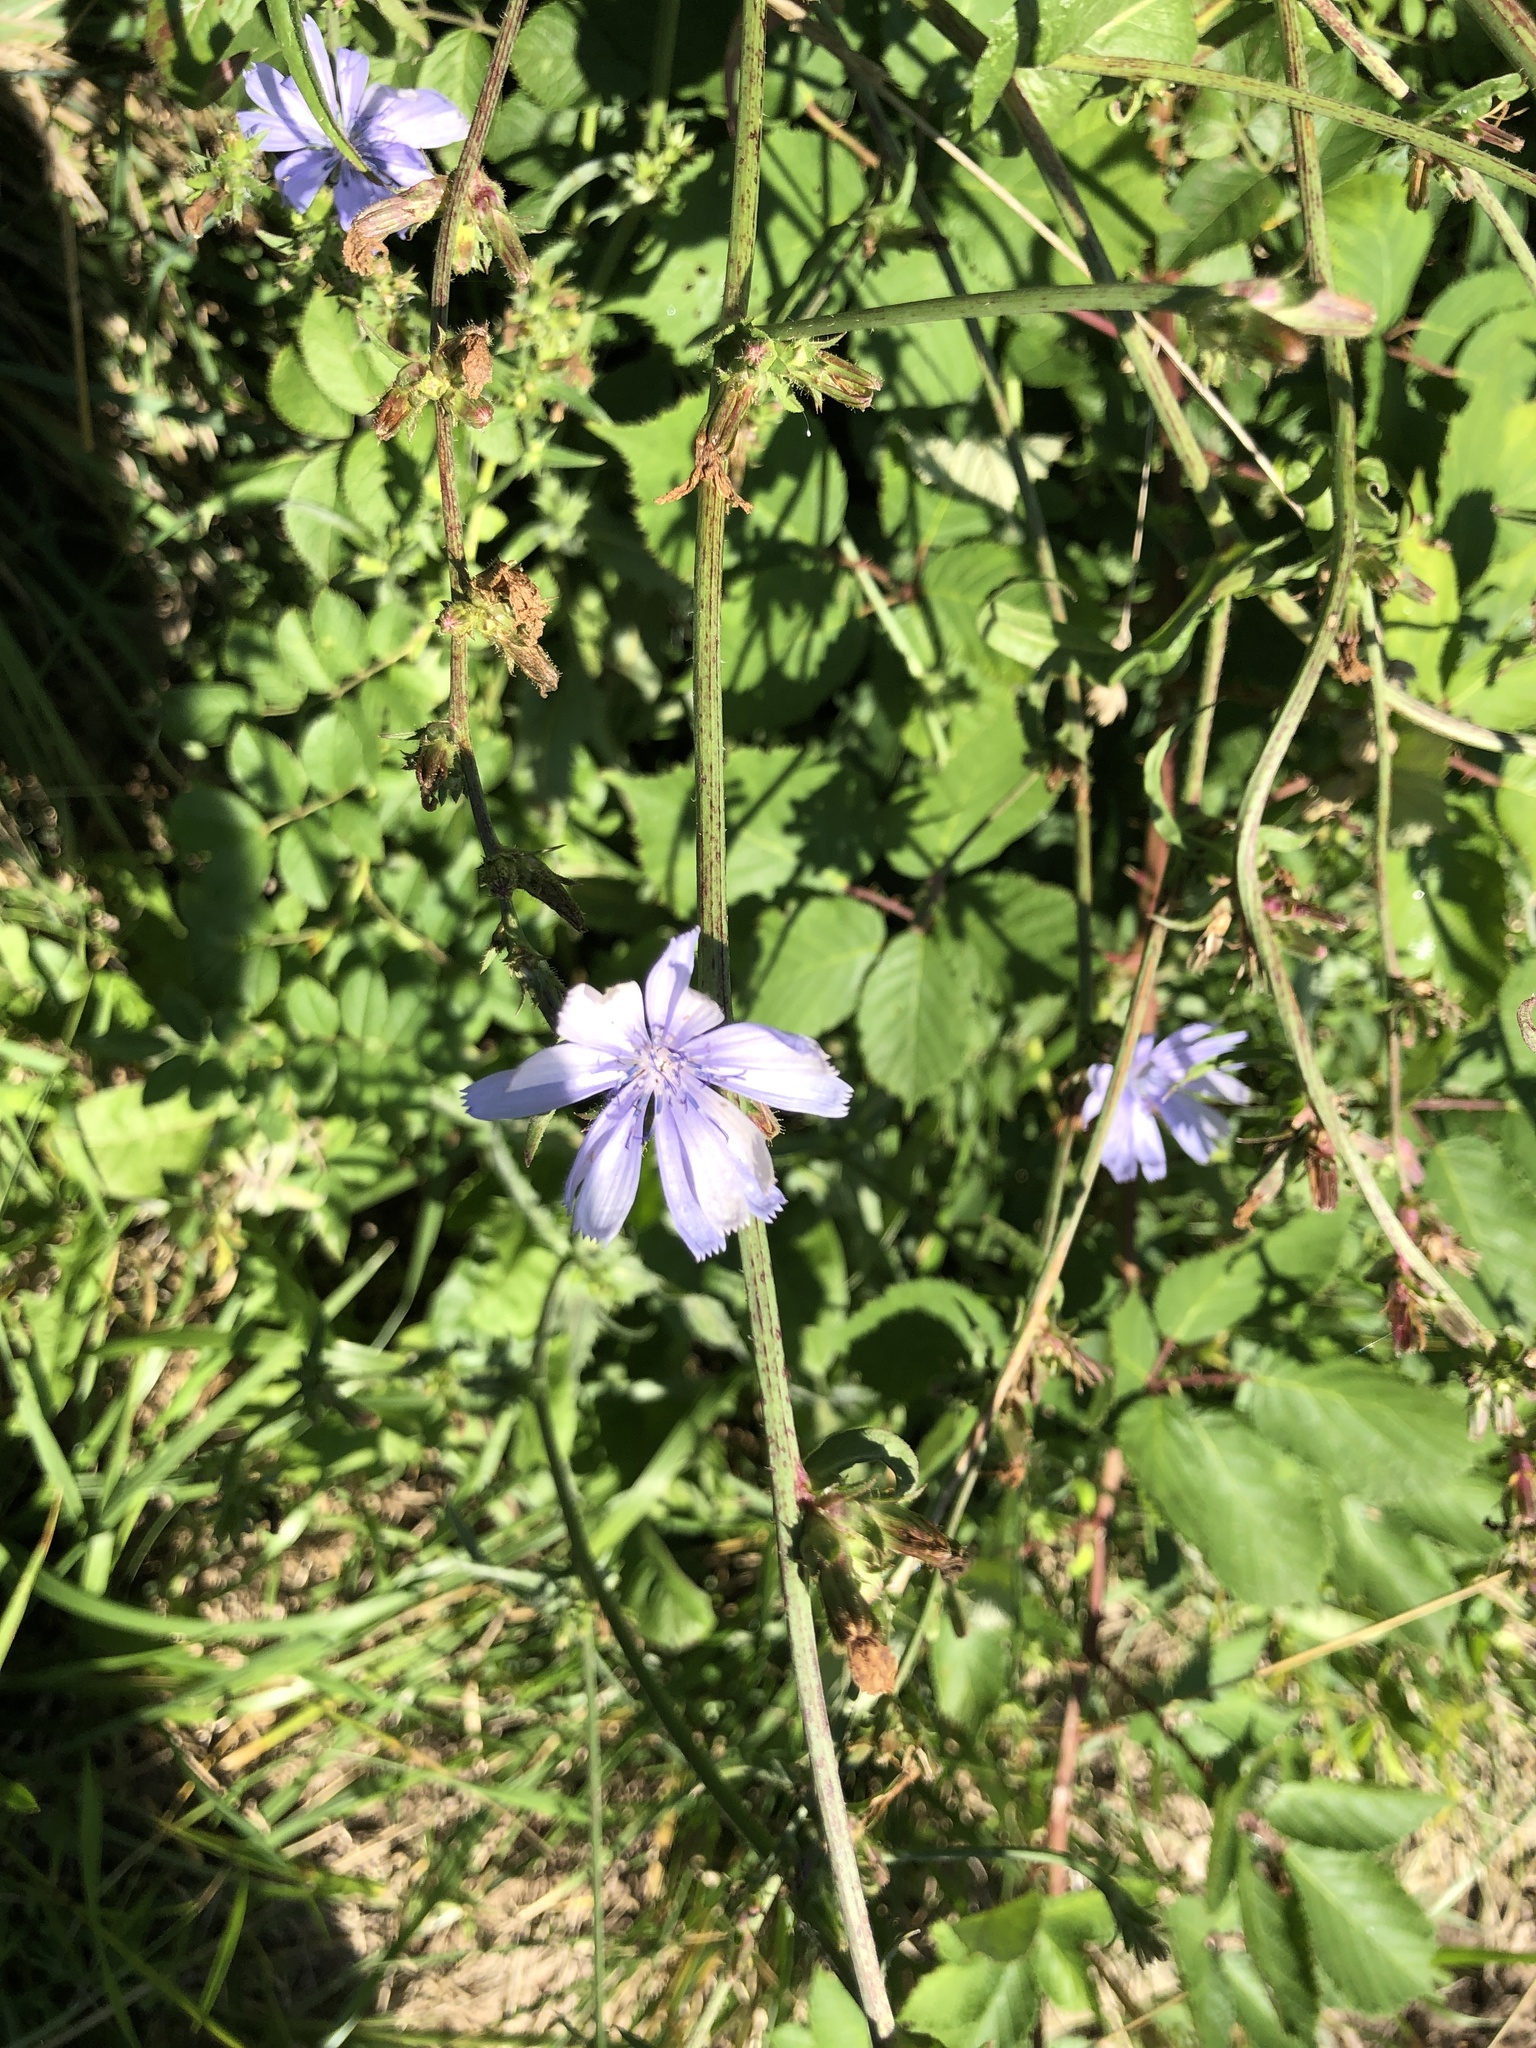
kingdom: Plantae
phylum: Tracheophyta
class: Magnoliopsida
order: Asterales
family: Asteraceae
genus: Cichorium
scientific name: Cichorium intybus
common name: Chicory
